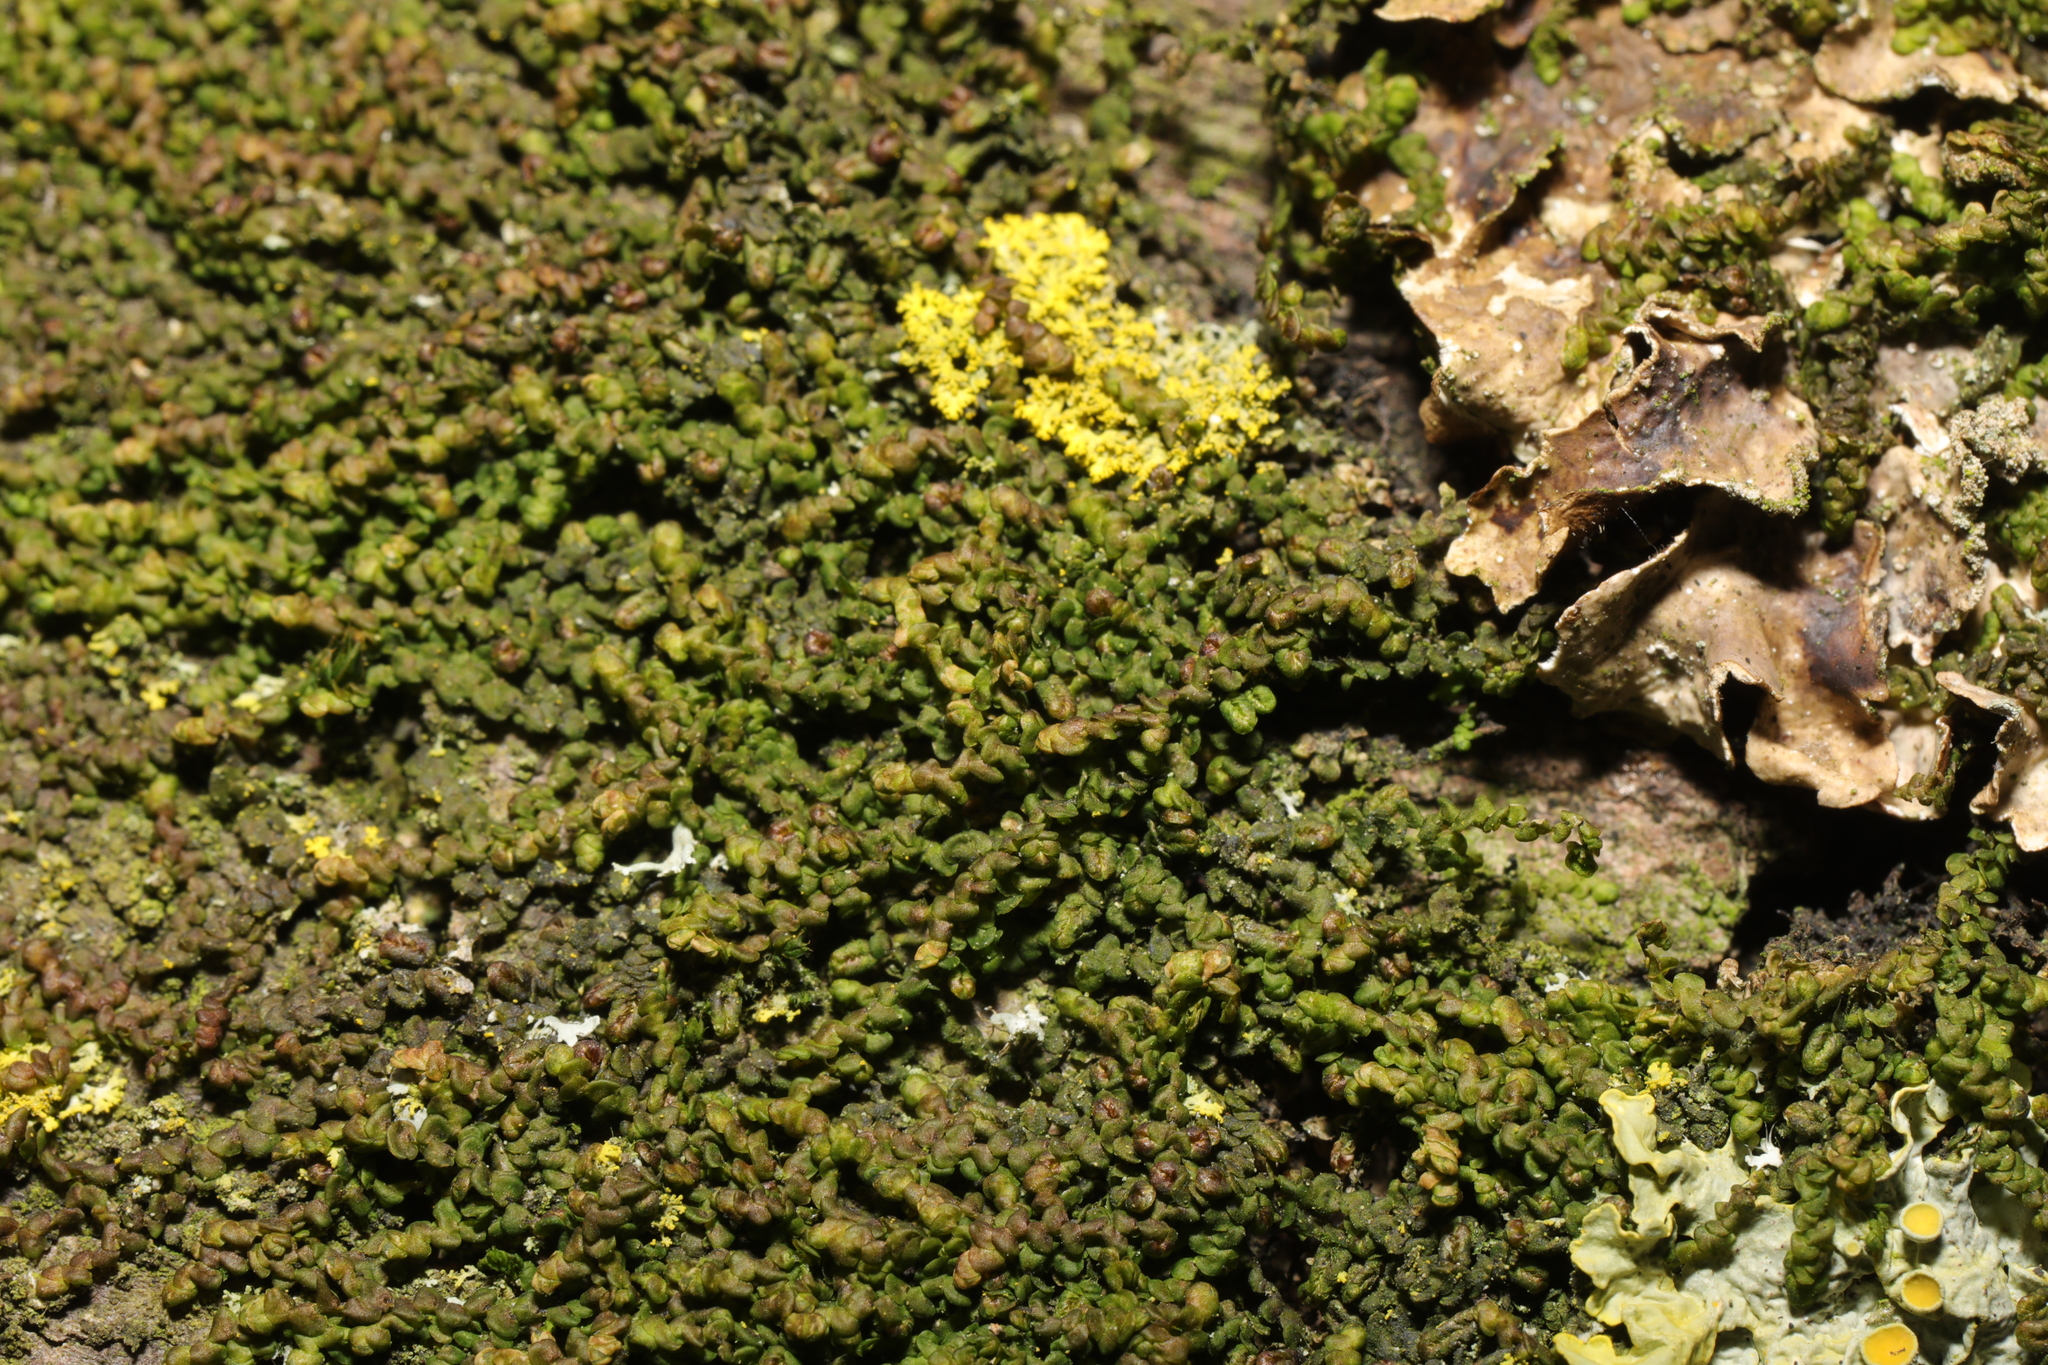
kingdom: Plantae
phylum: Marchantiophyta
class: Jungermanniopsida
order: Porellales
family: Frullaniaceae
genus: Frullania
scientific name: Frullania dilatata
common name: Dilated scalewort
